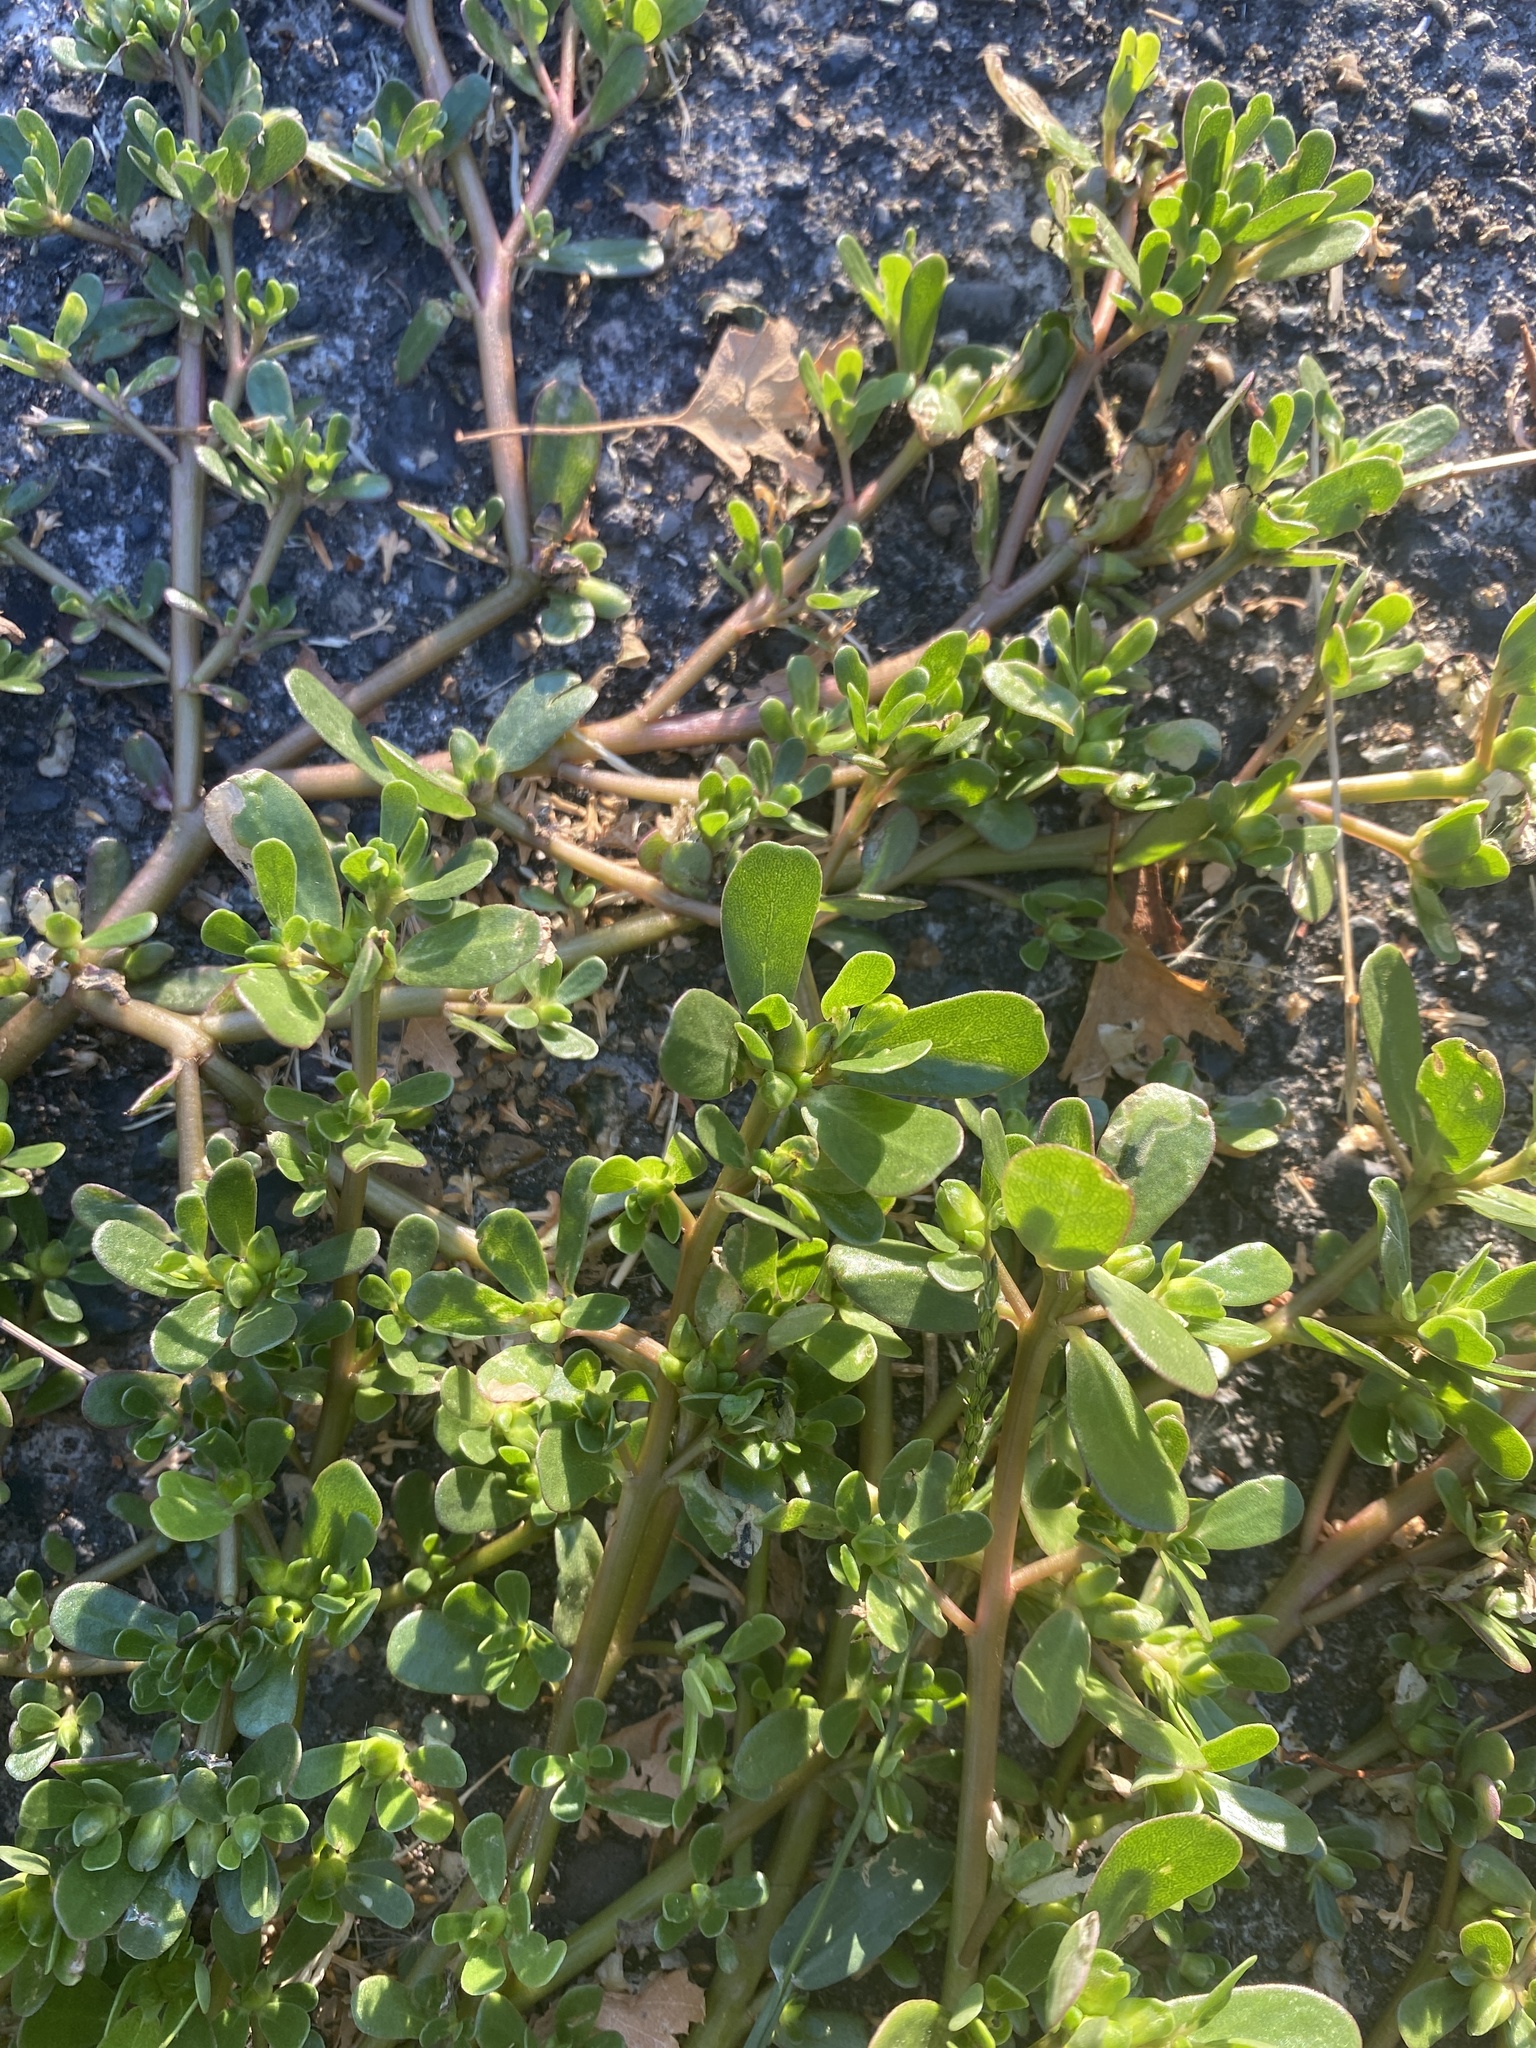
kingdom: Plantae
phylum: Tracheophyta
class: Magnoliopsida
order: Caryophyllales
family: Portulacaceae
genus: Portulaca
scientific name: Portulaca oleracea
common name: Common purslane
